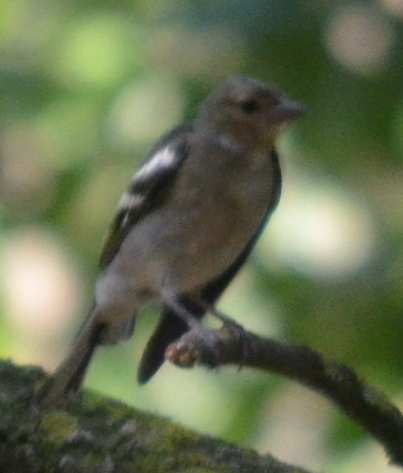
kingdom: Animalia
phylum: Chordata
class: Aves
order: Passeriformes
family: Fringillidae
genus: Fringilla
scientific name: Fringilla coelebs
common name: Common chaffinch
